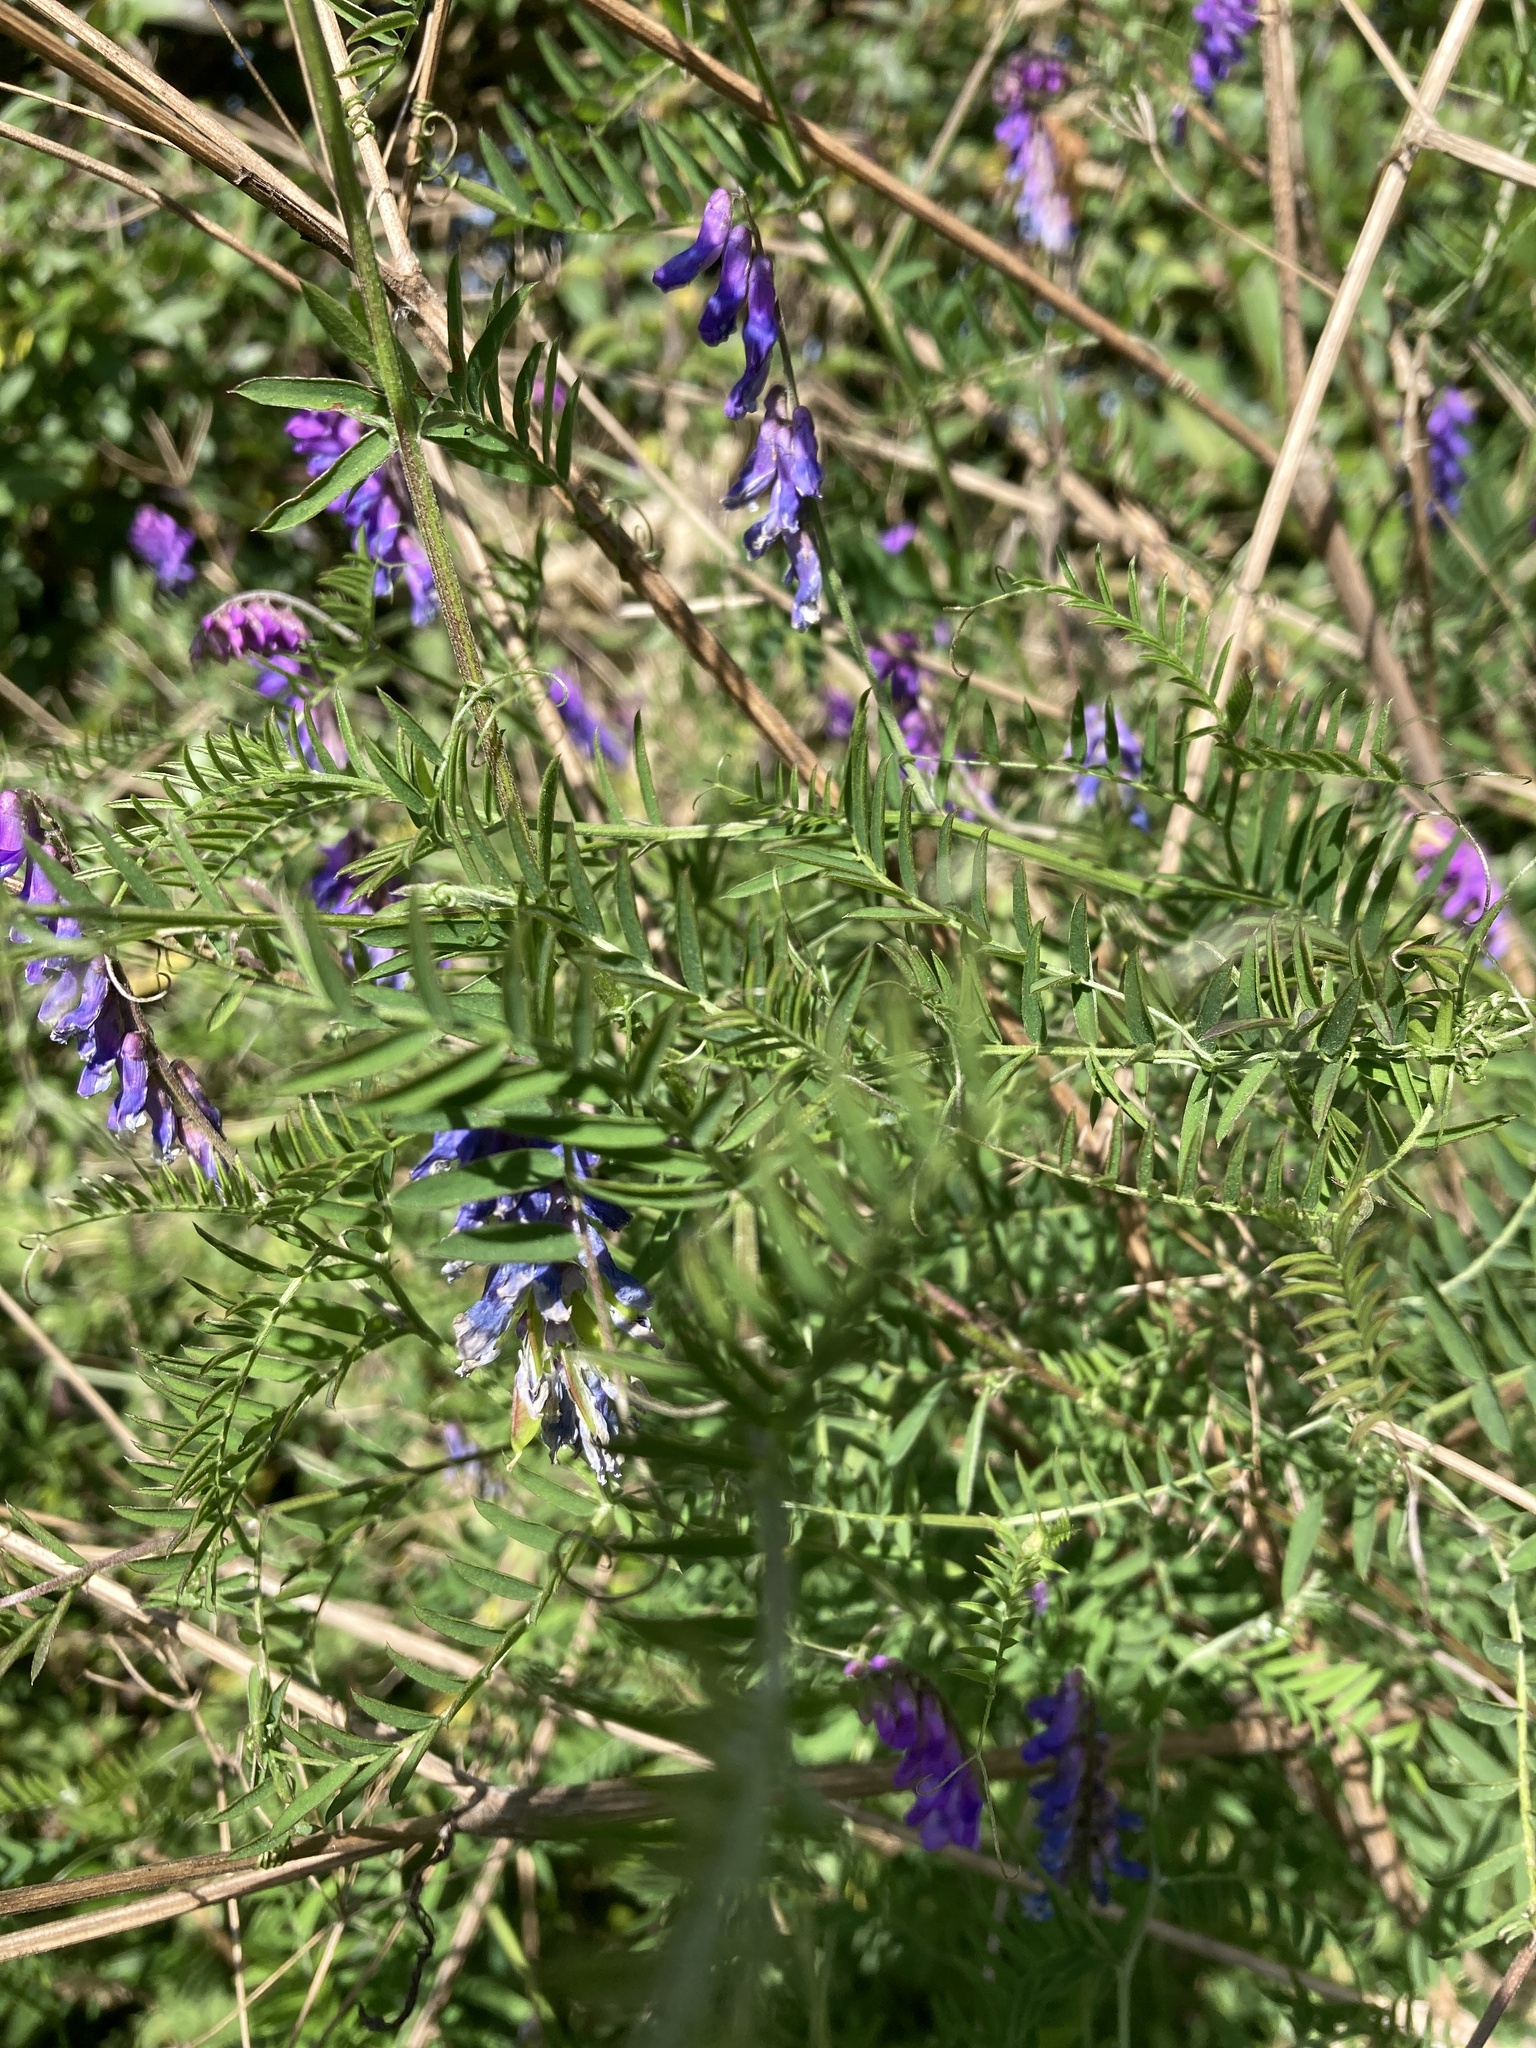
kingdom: Plantae
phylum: Tracheophyta
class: Magnoliopsida
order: Fabales
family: Fabaceae
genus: Vicia
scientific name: Vicia cracca
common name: Bird vetch
